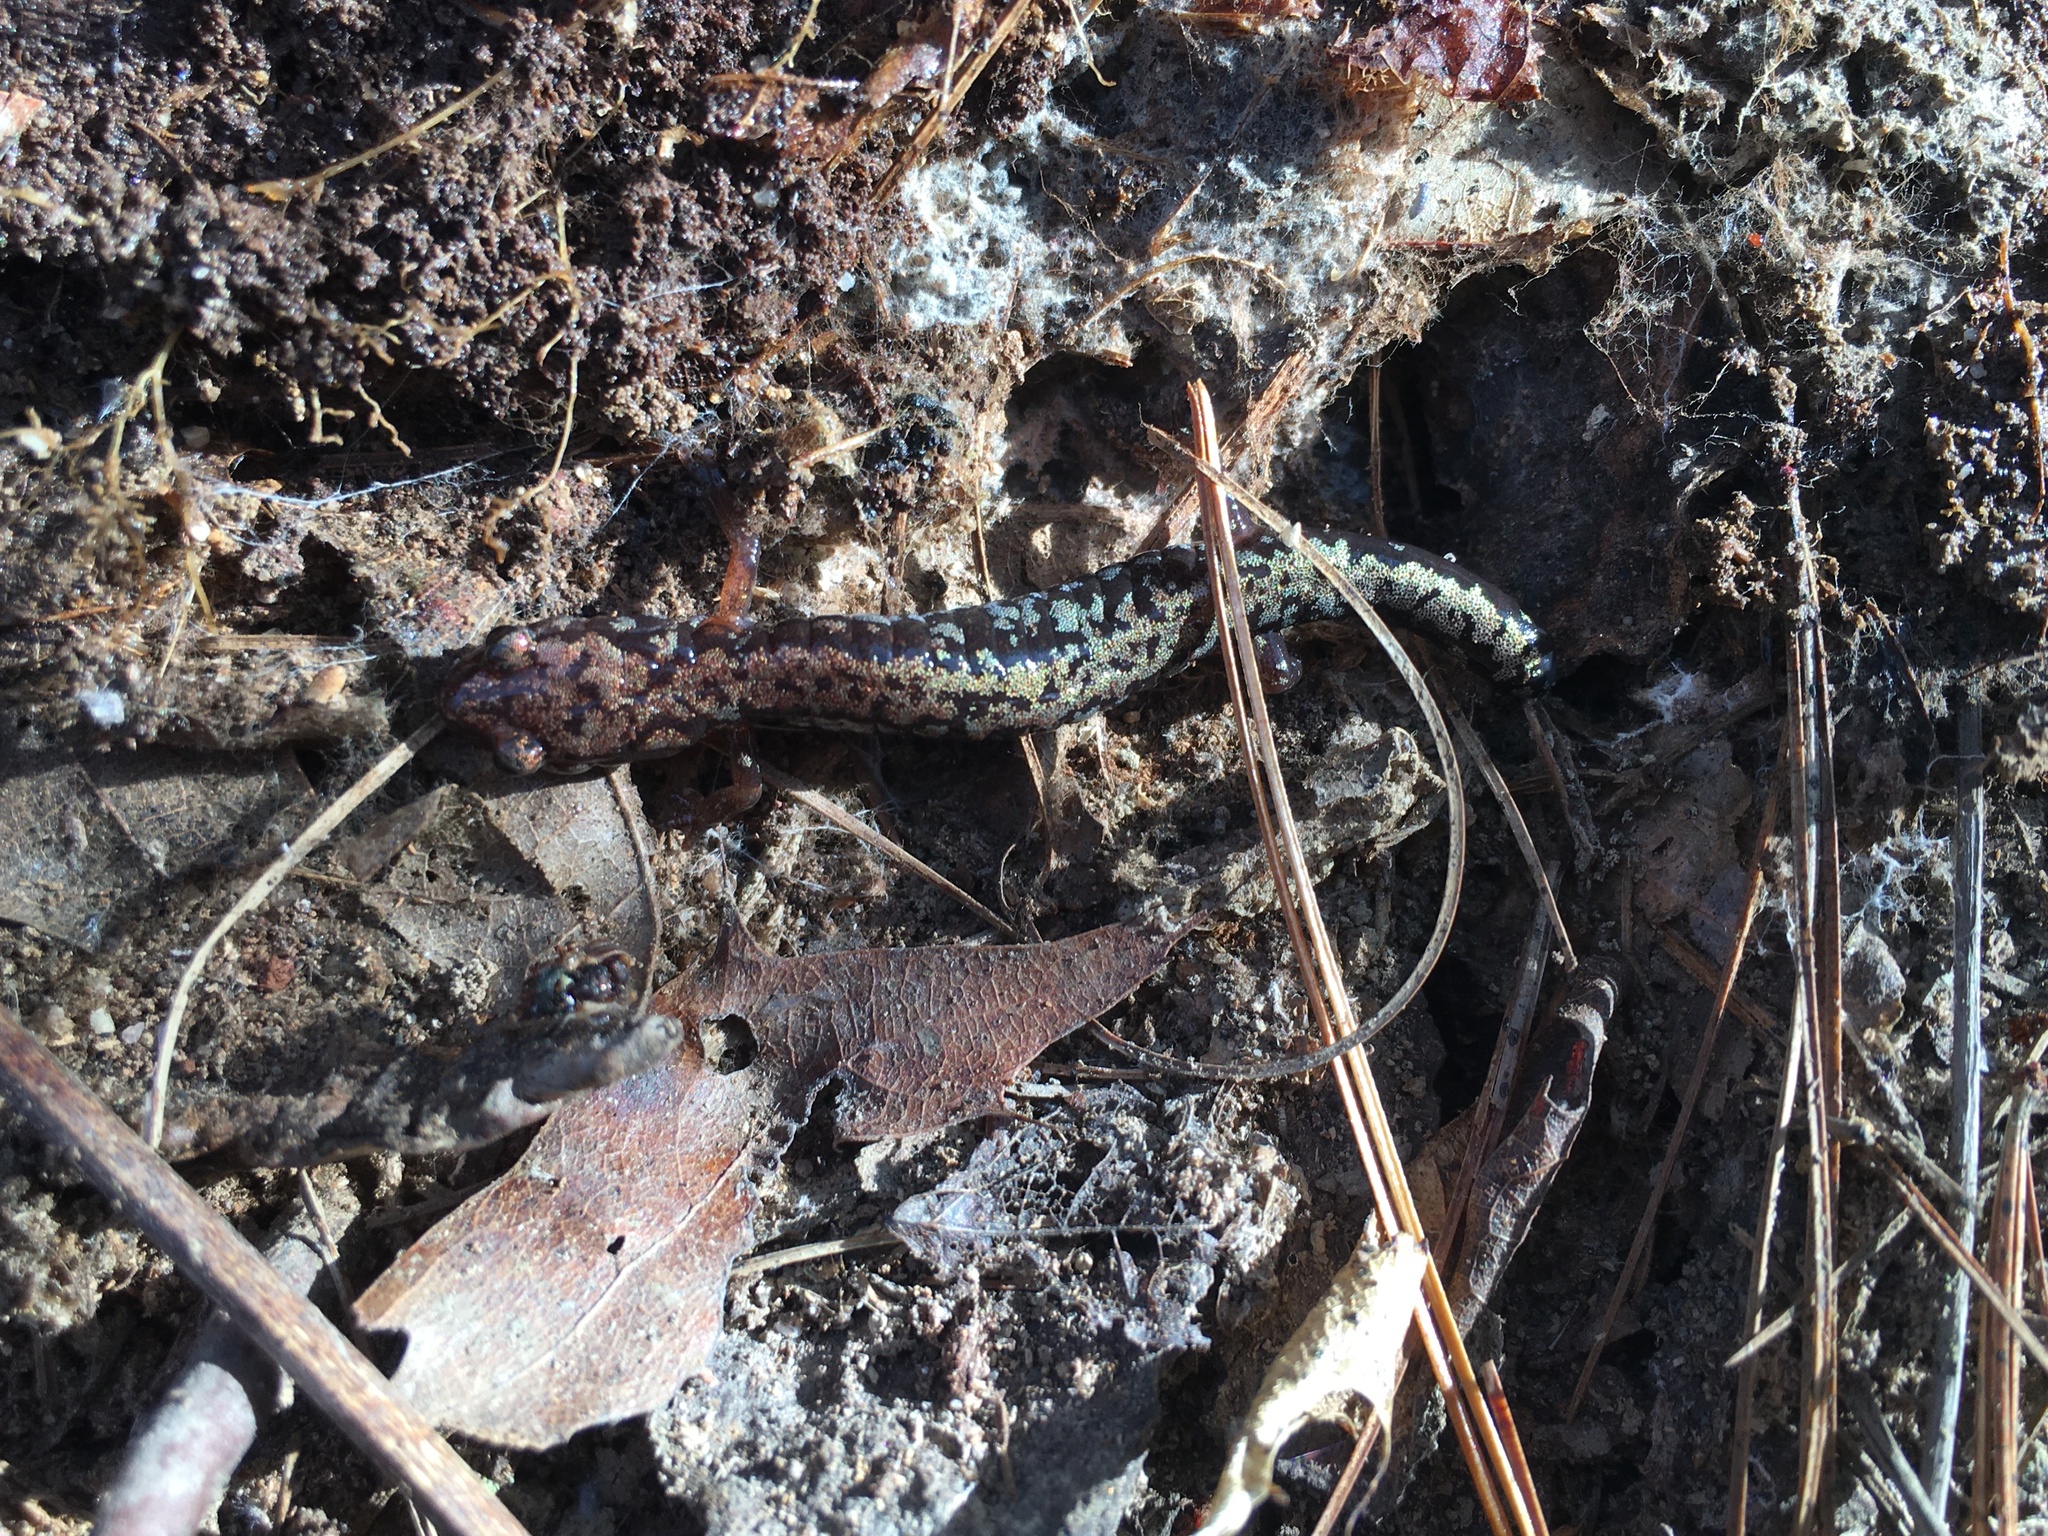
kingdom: Animalia
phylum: Chordata
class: Amphibia
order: Caudata
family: Plethodontidae
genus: Plethodon
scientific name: Plethodon welleri
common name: Weller's salamander
